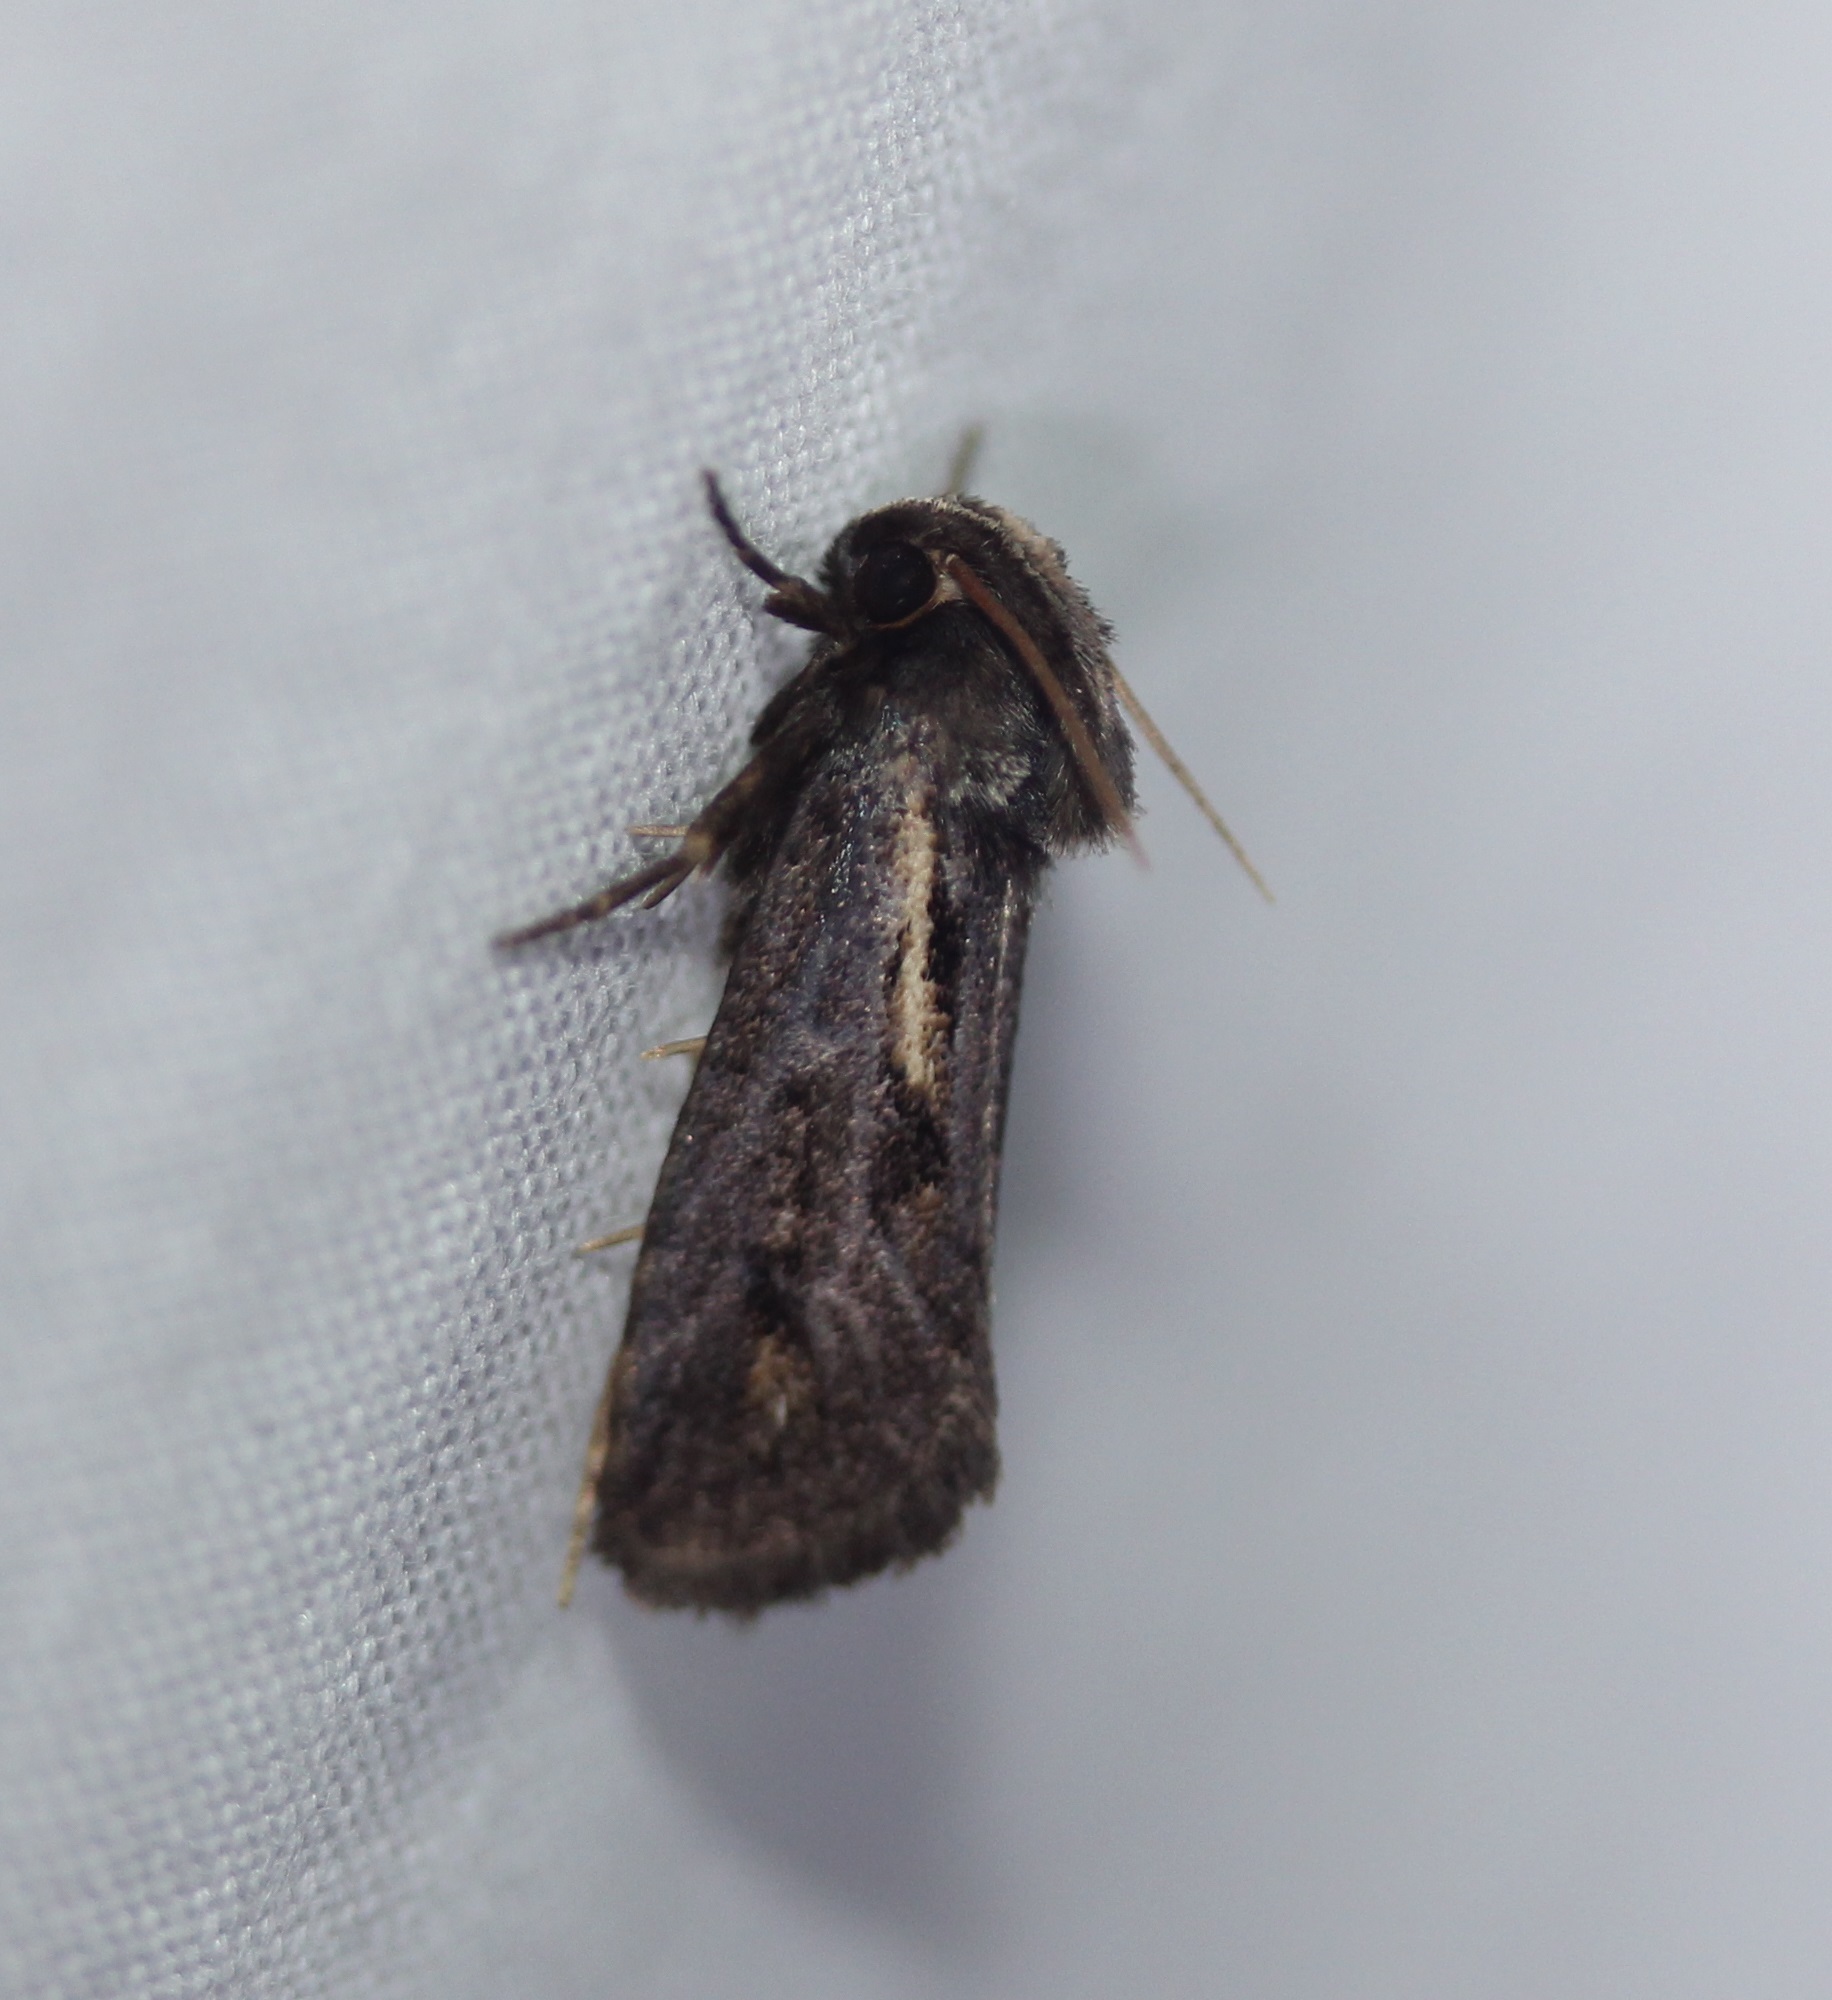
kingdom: Animalia
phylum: Arthropoda
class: Insecta
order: Lepidoptera
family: Tineidae
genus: Acrolophus
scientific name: Acrolophus popeanella
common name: Clemens' grass tubeworm moth
